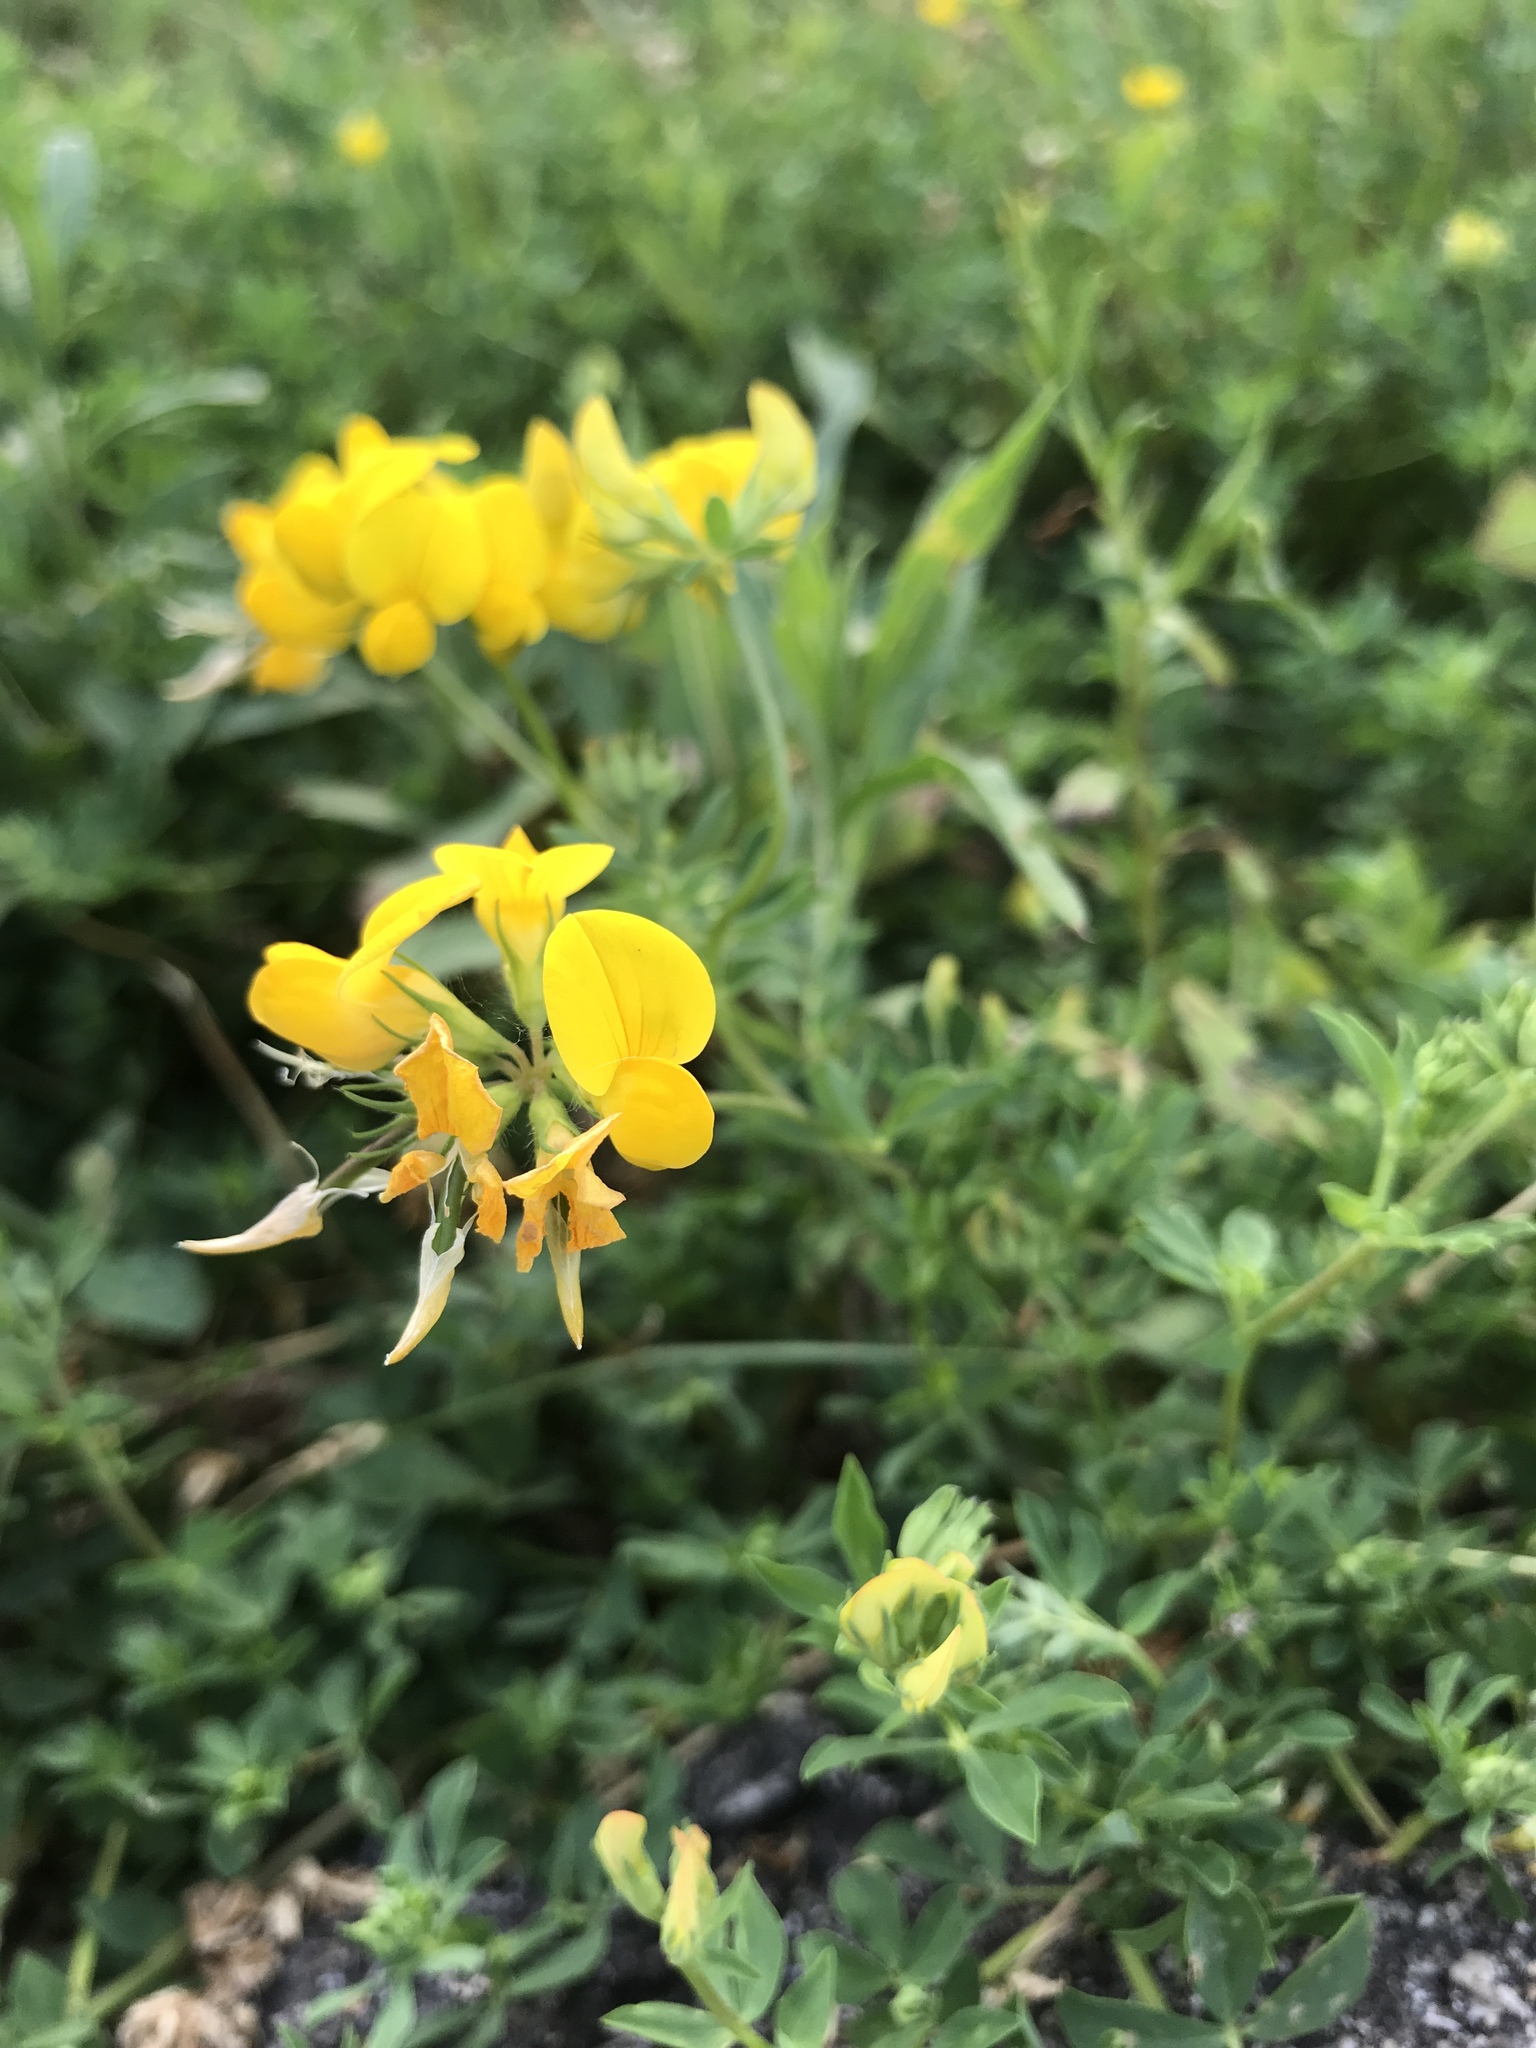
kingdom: Plantae
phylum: Tracheophyta
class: Magnoliopsida
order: Fabales
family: Fabaceae
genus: Lotus
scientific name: Lotus corniculatus
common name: Common bird's-foot-trefoil
